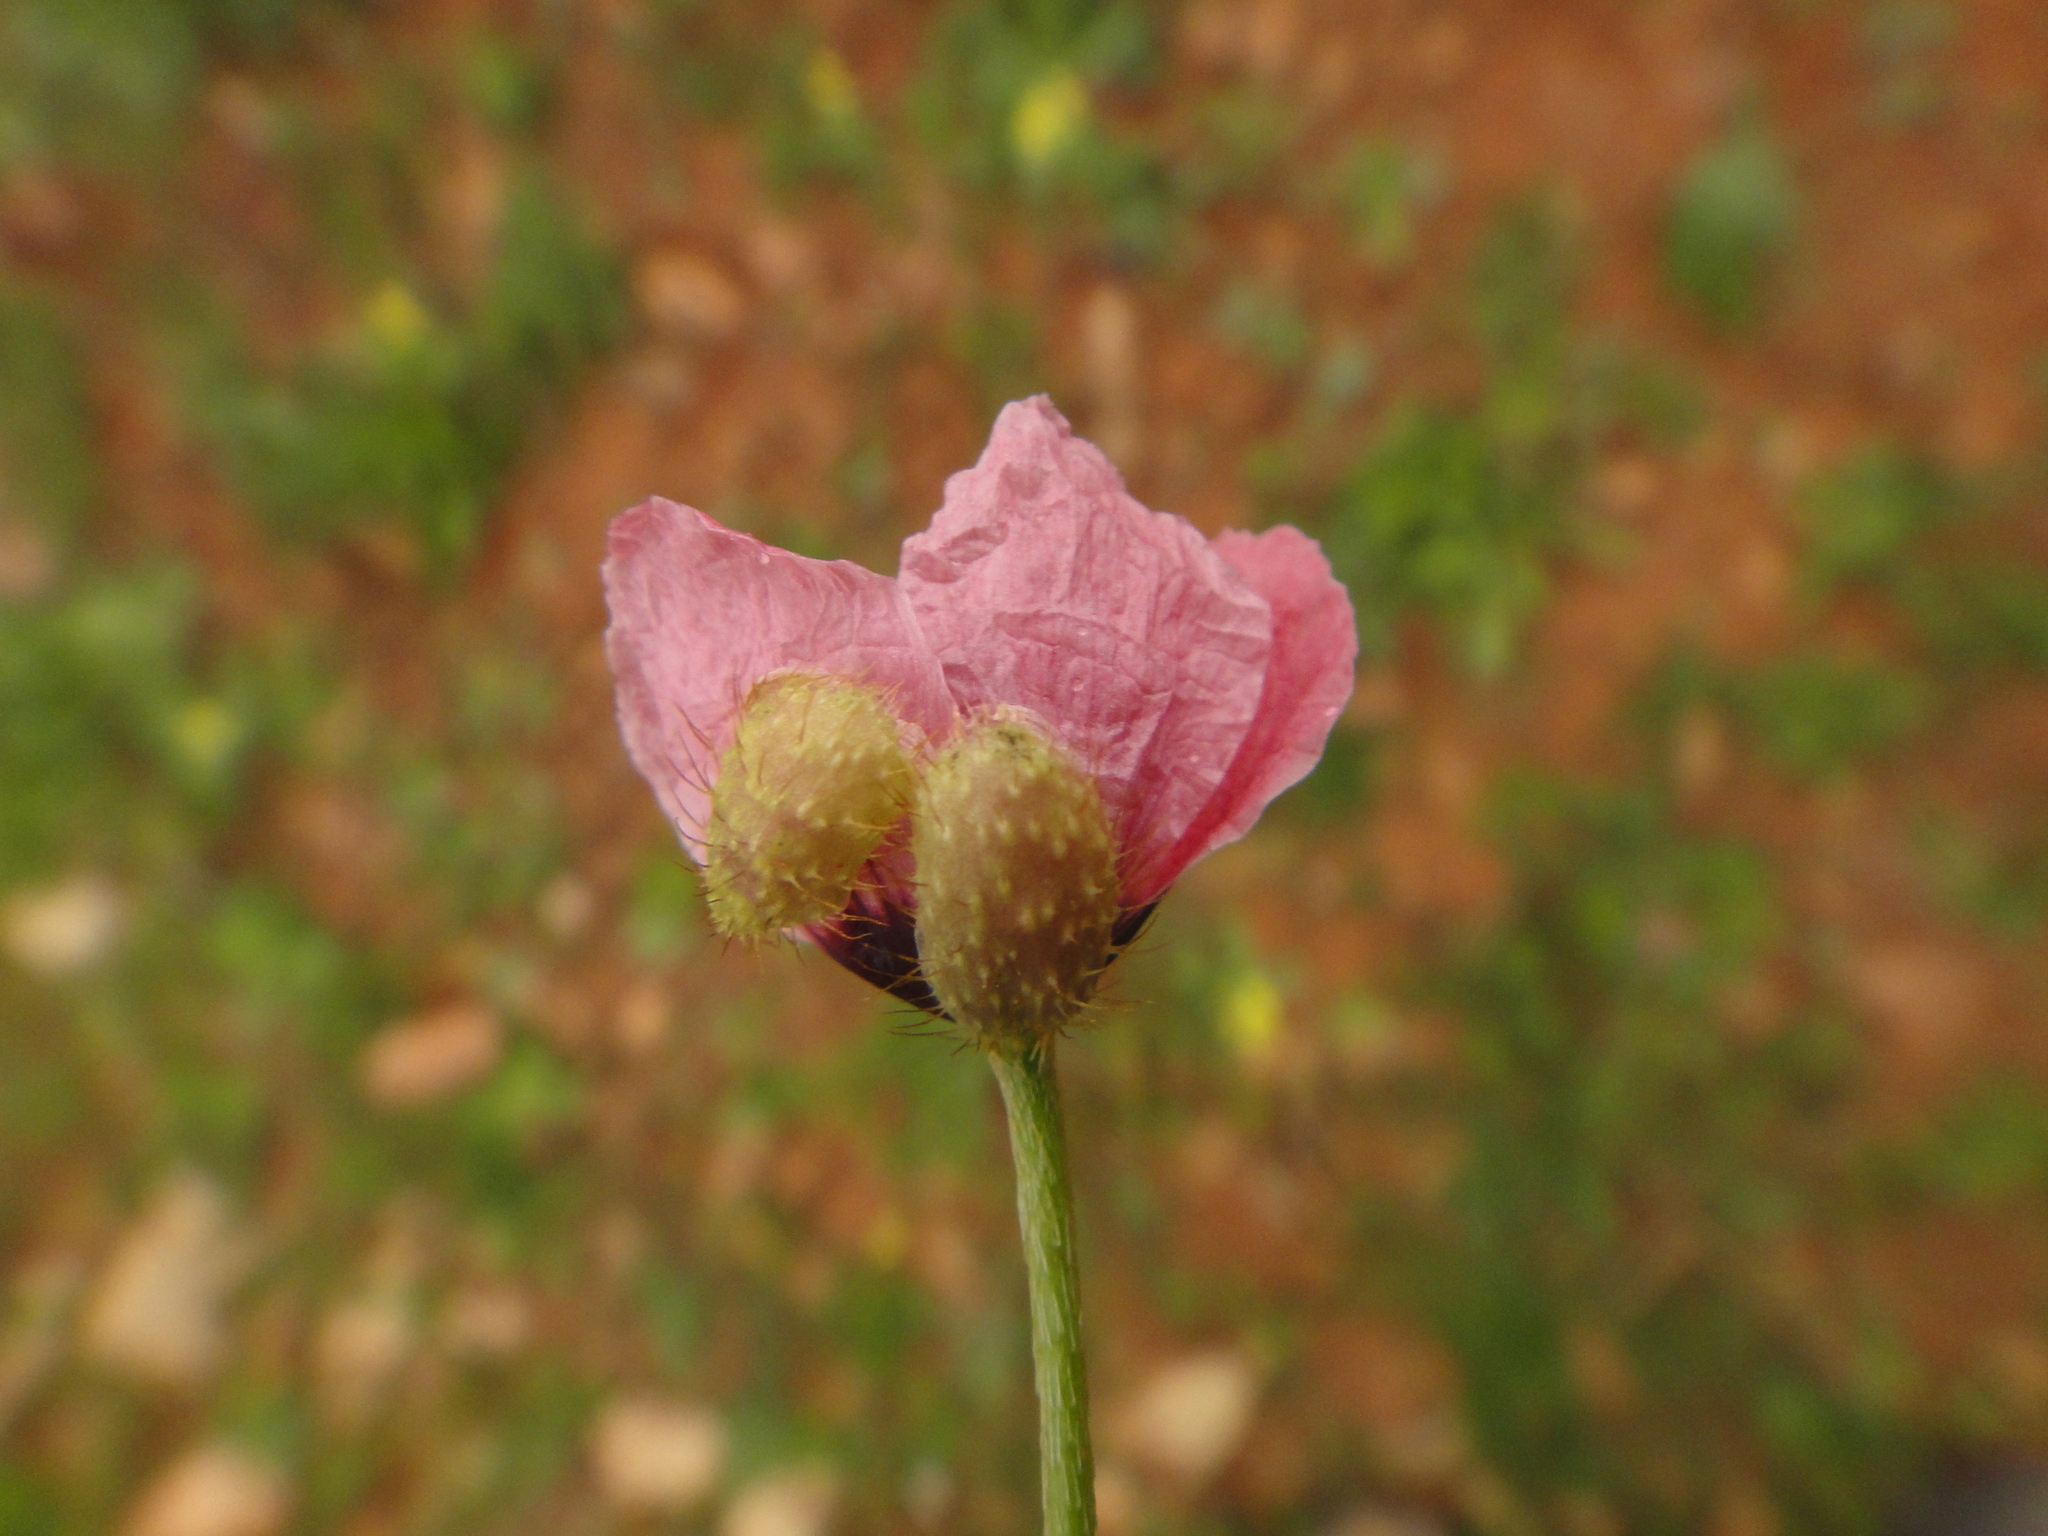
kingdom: Plantae
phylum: Tracheophyta
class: Magnoliopsida
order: Ranunculales
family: Papaveraceae
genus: Roemeria
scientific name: Roemeria hispida
